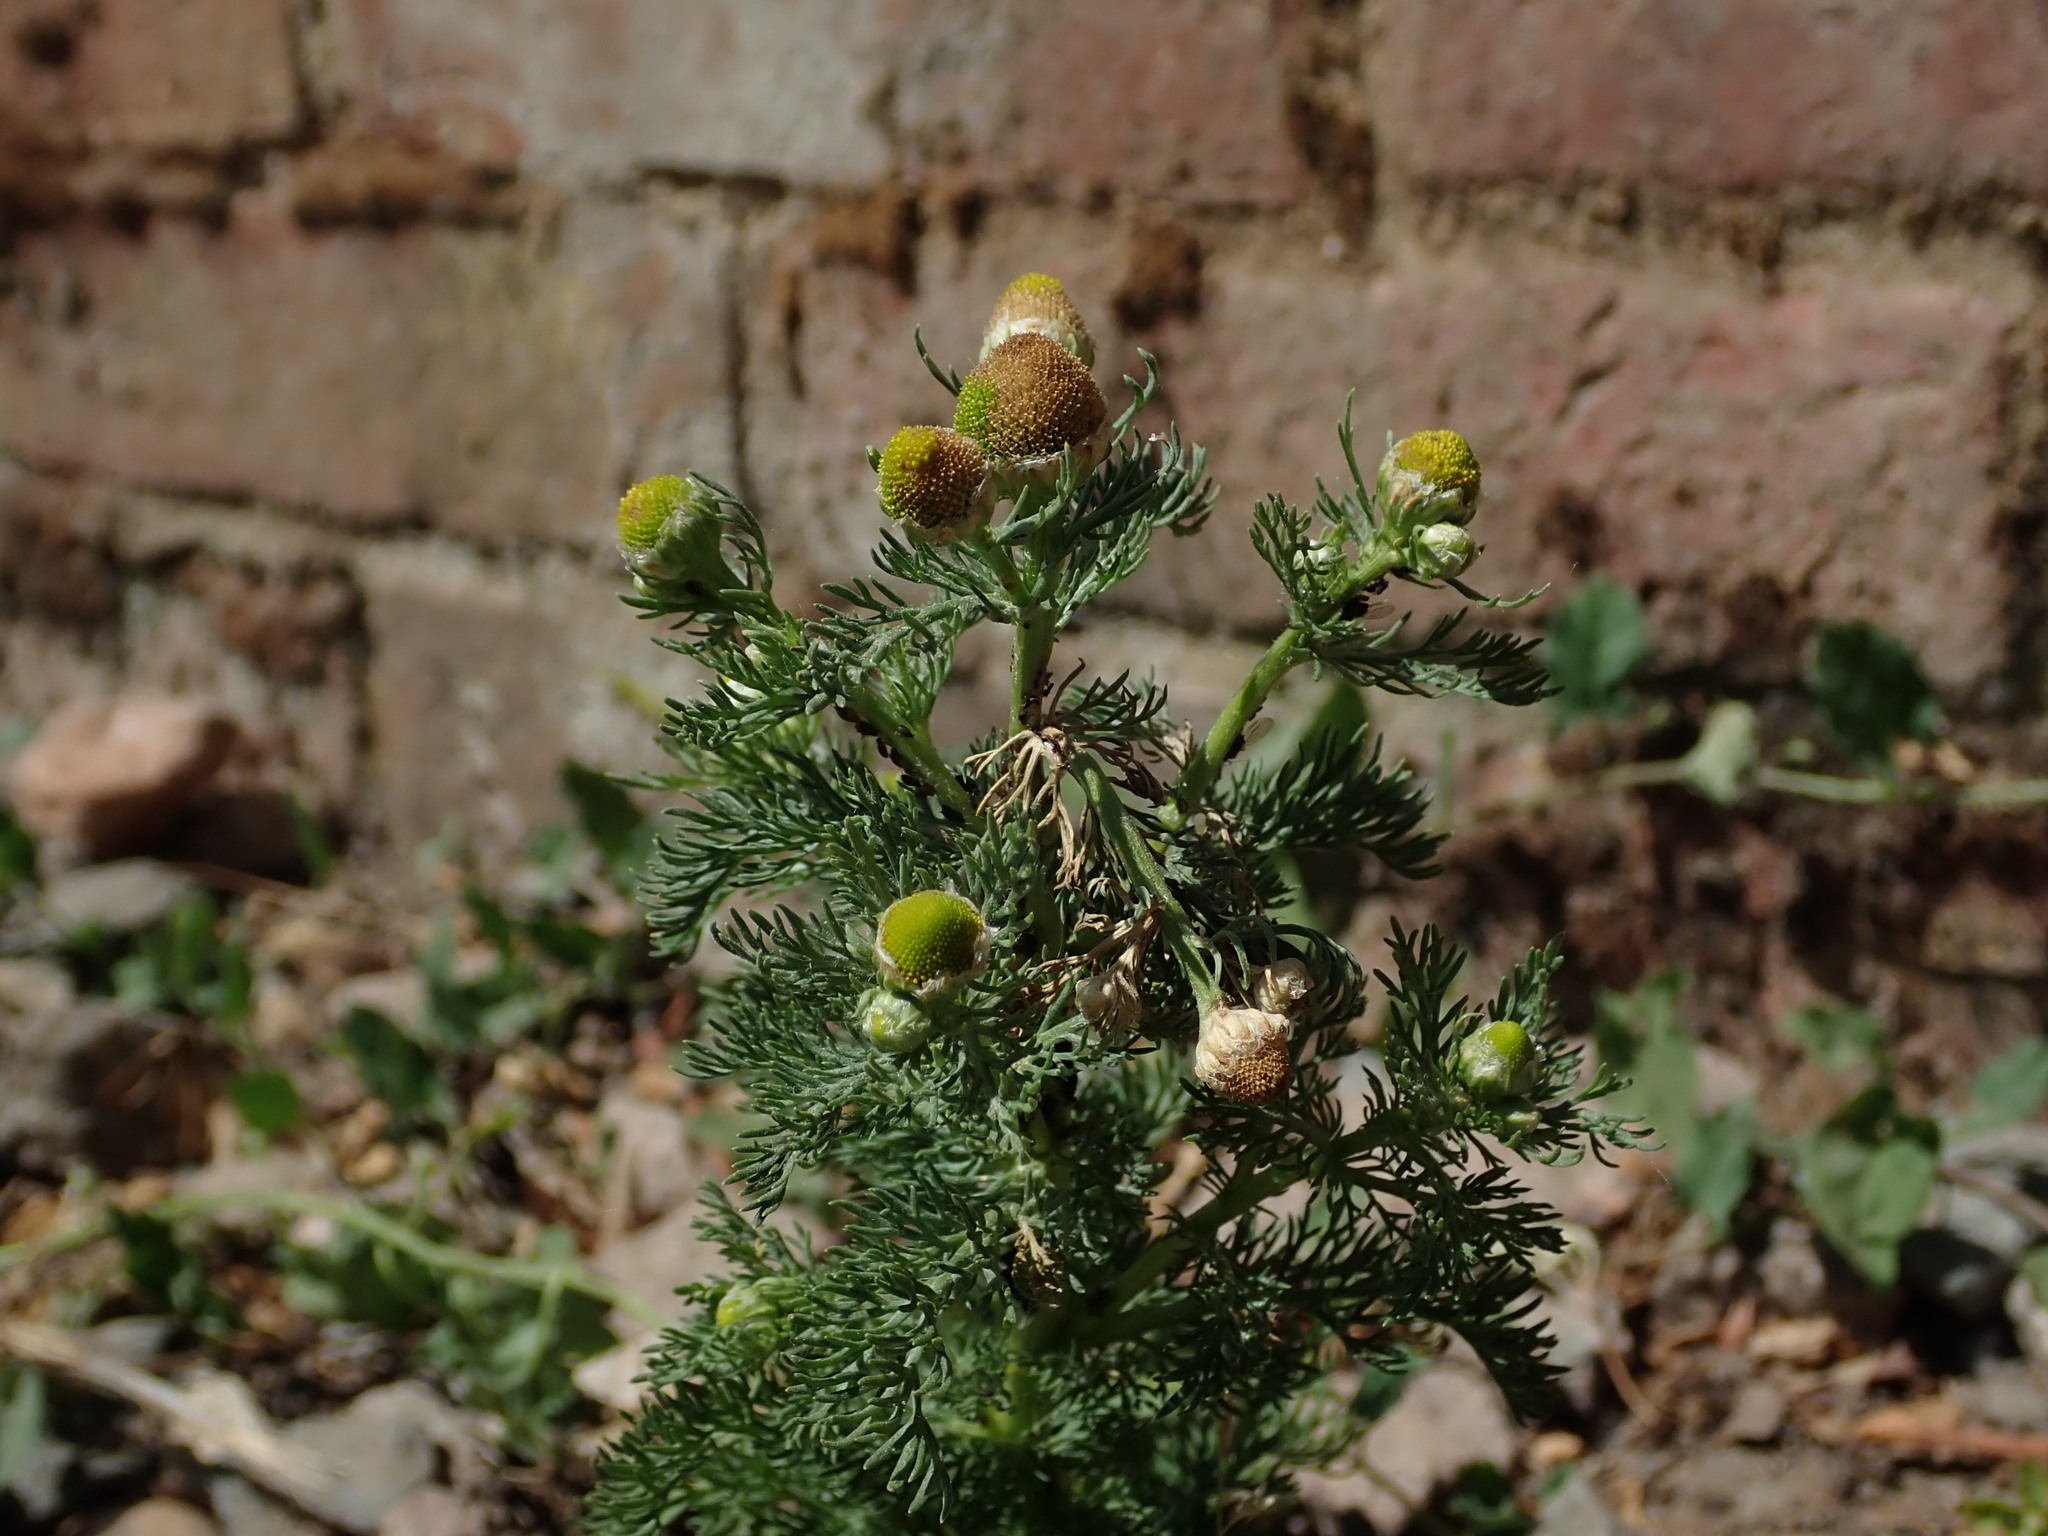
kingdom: Plantae
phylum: Tracheophyta
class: Magnoliopsida
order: Asterales
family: Asteraceae
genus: Matricaria
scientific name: Matricaria discoidea
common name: Disc mayweed
